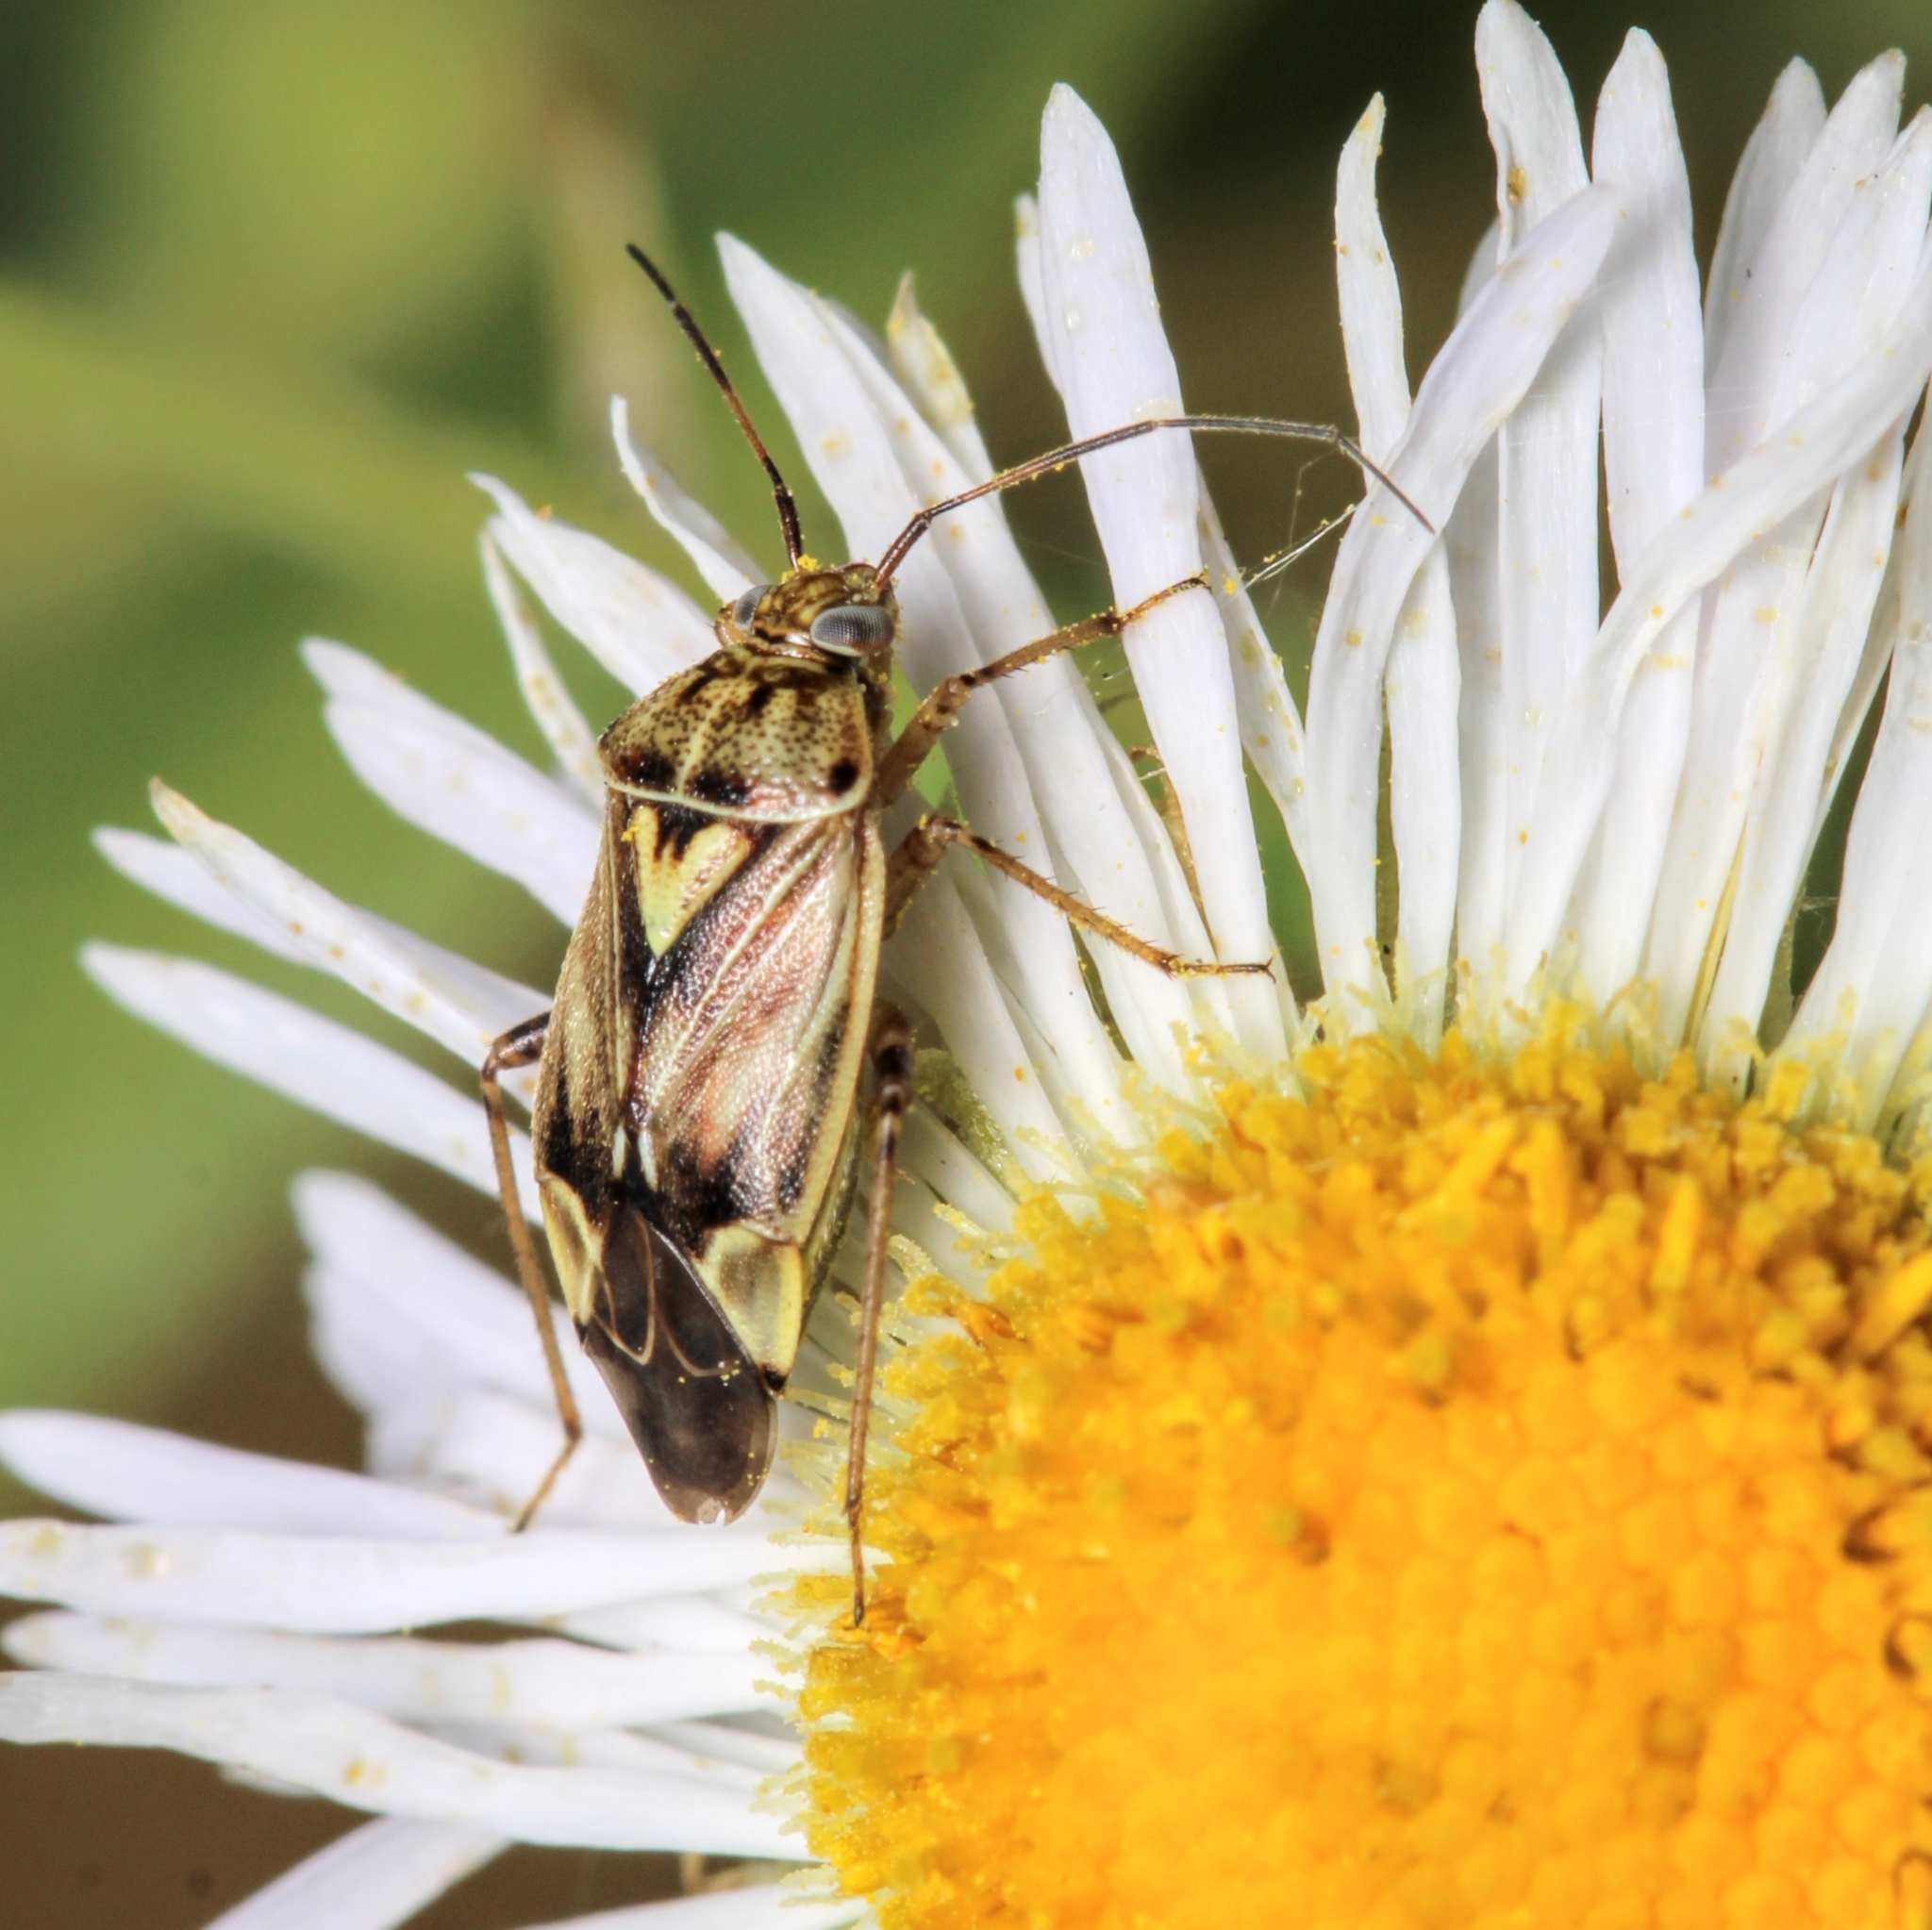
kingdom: Animalia
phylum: Arthropoda
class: Insecta
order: Hemiptera
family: Miridae
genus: Lygus
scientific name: Lygus lineolaris
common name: North american tarnished plant bug
